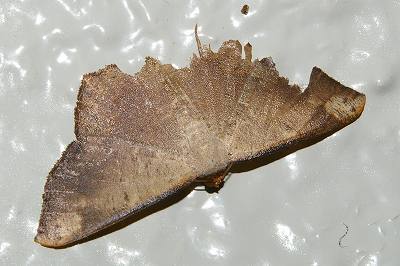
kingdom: Animalia
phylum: Arthropoda
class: Insecta
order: Lepidoptera
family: Geometridae
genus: Peratostega
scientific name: Peratostega deletaria
